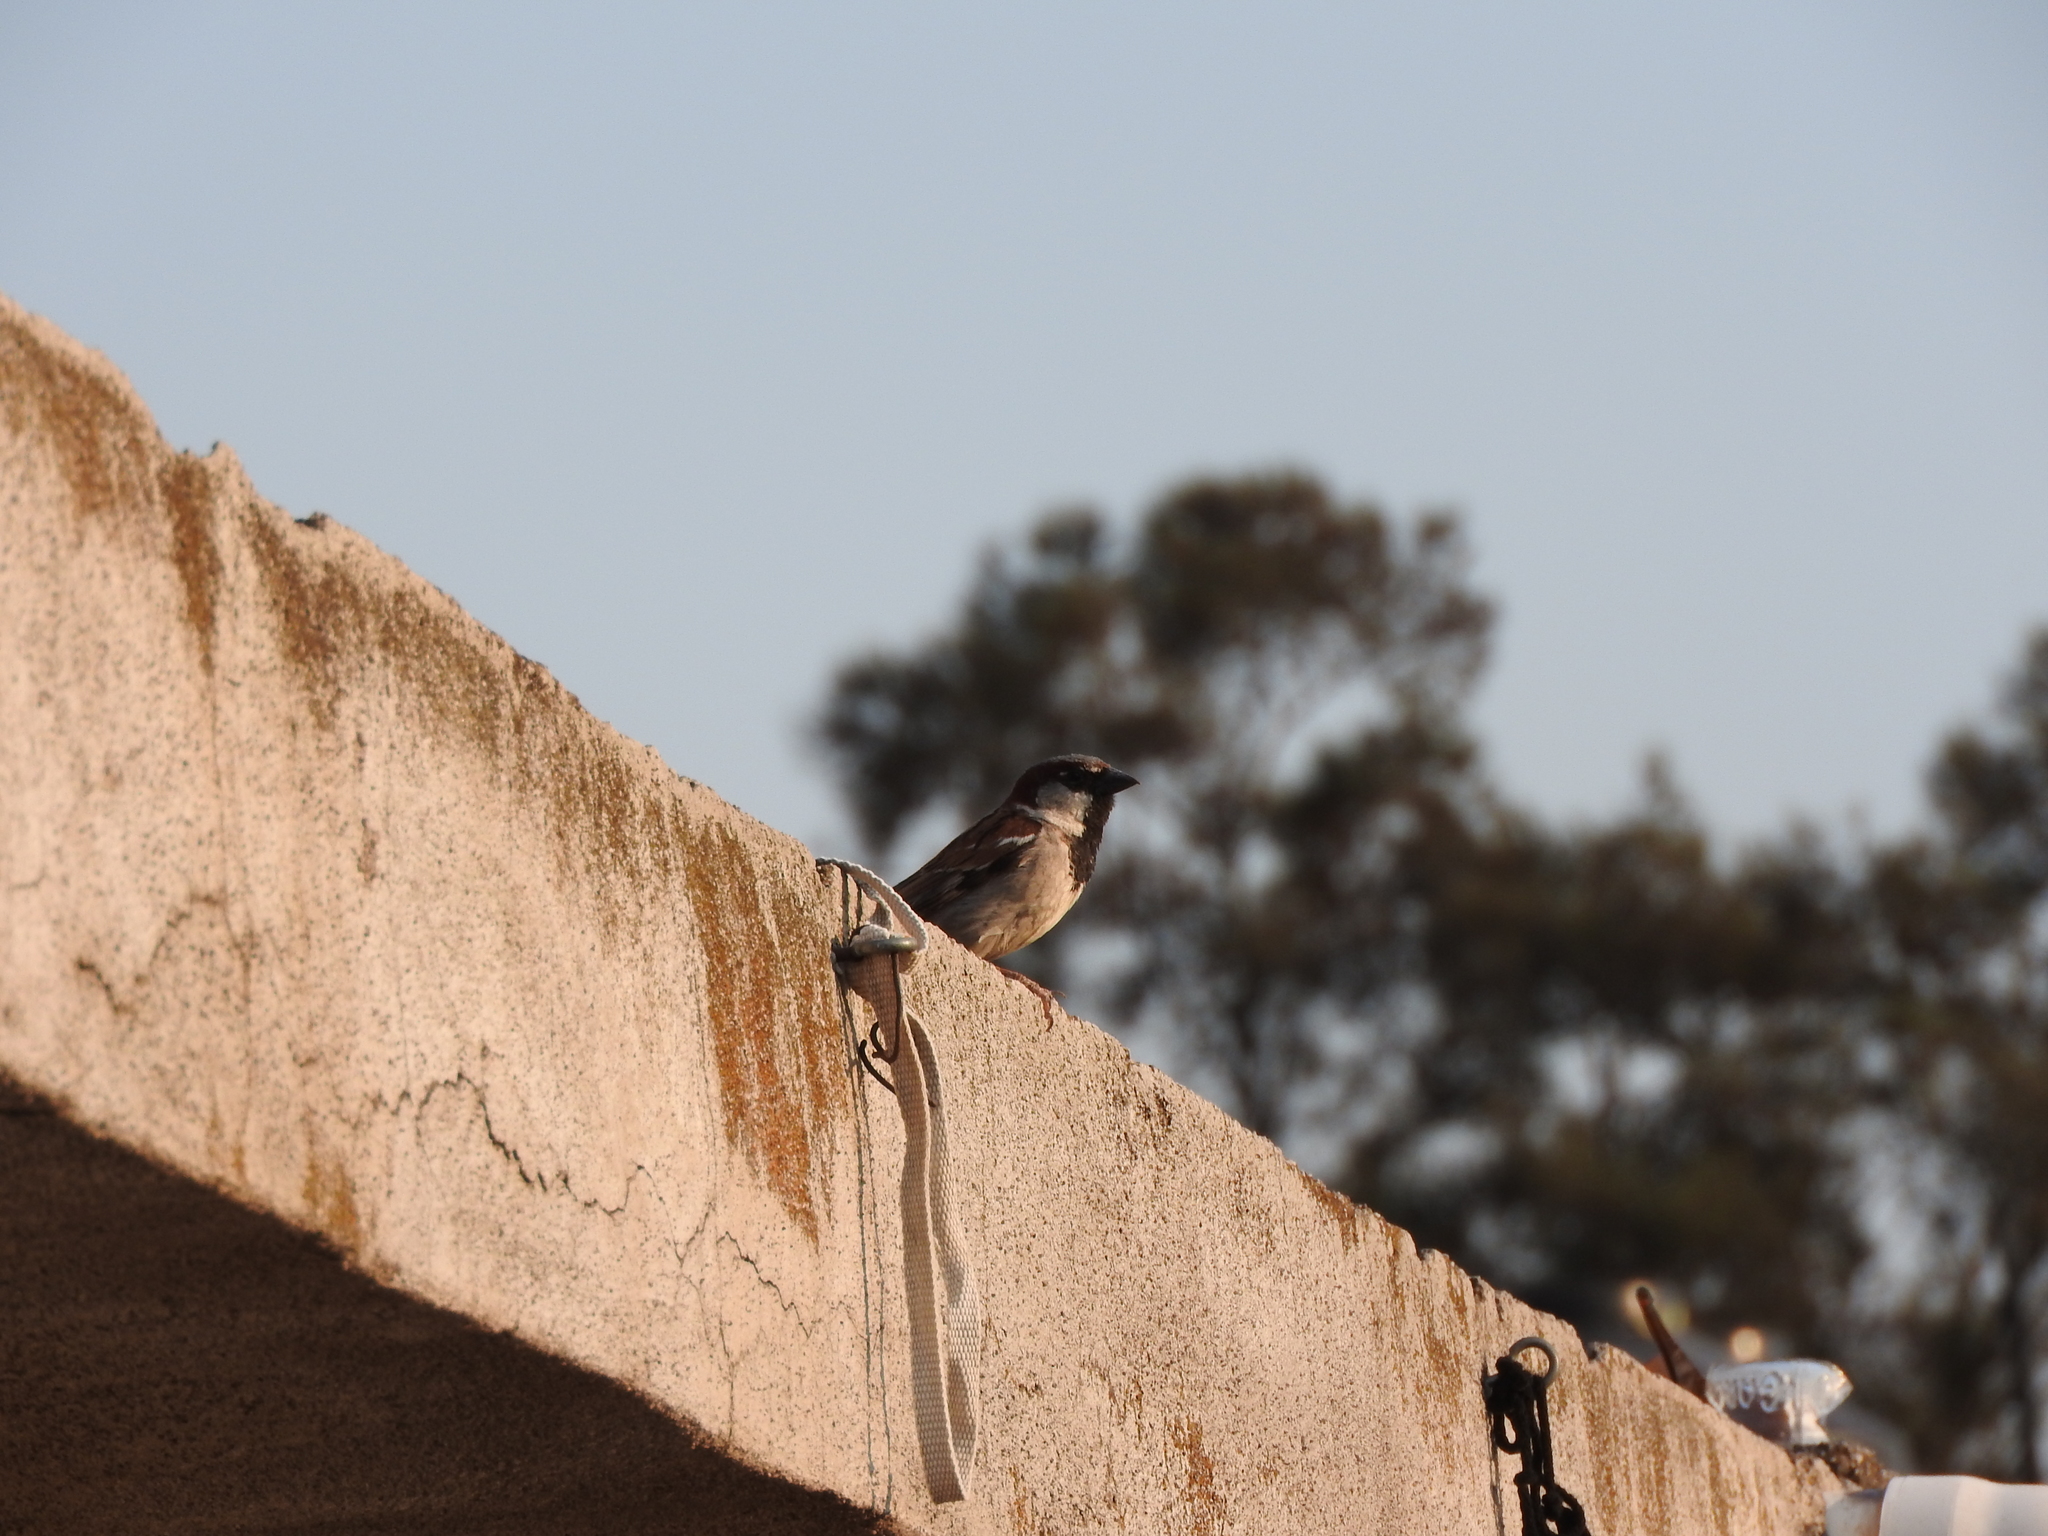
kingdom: Animalia
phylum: Chordata
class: Aves
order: Passeriformes
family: Passeridae
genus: Passer
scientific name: Passer domesticus
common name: House sparrow
